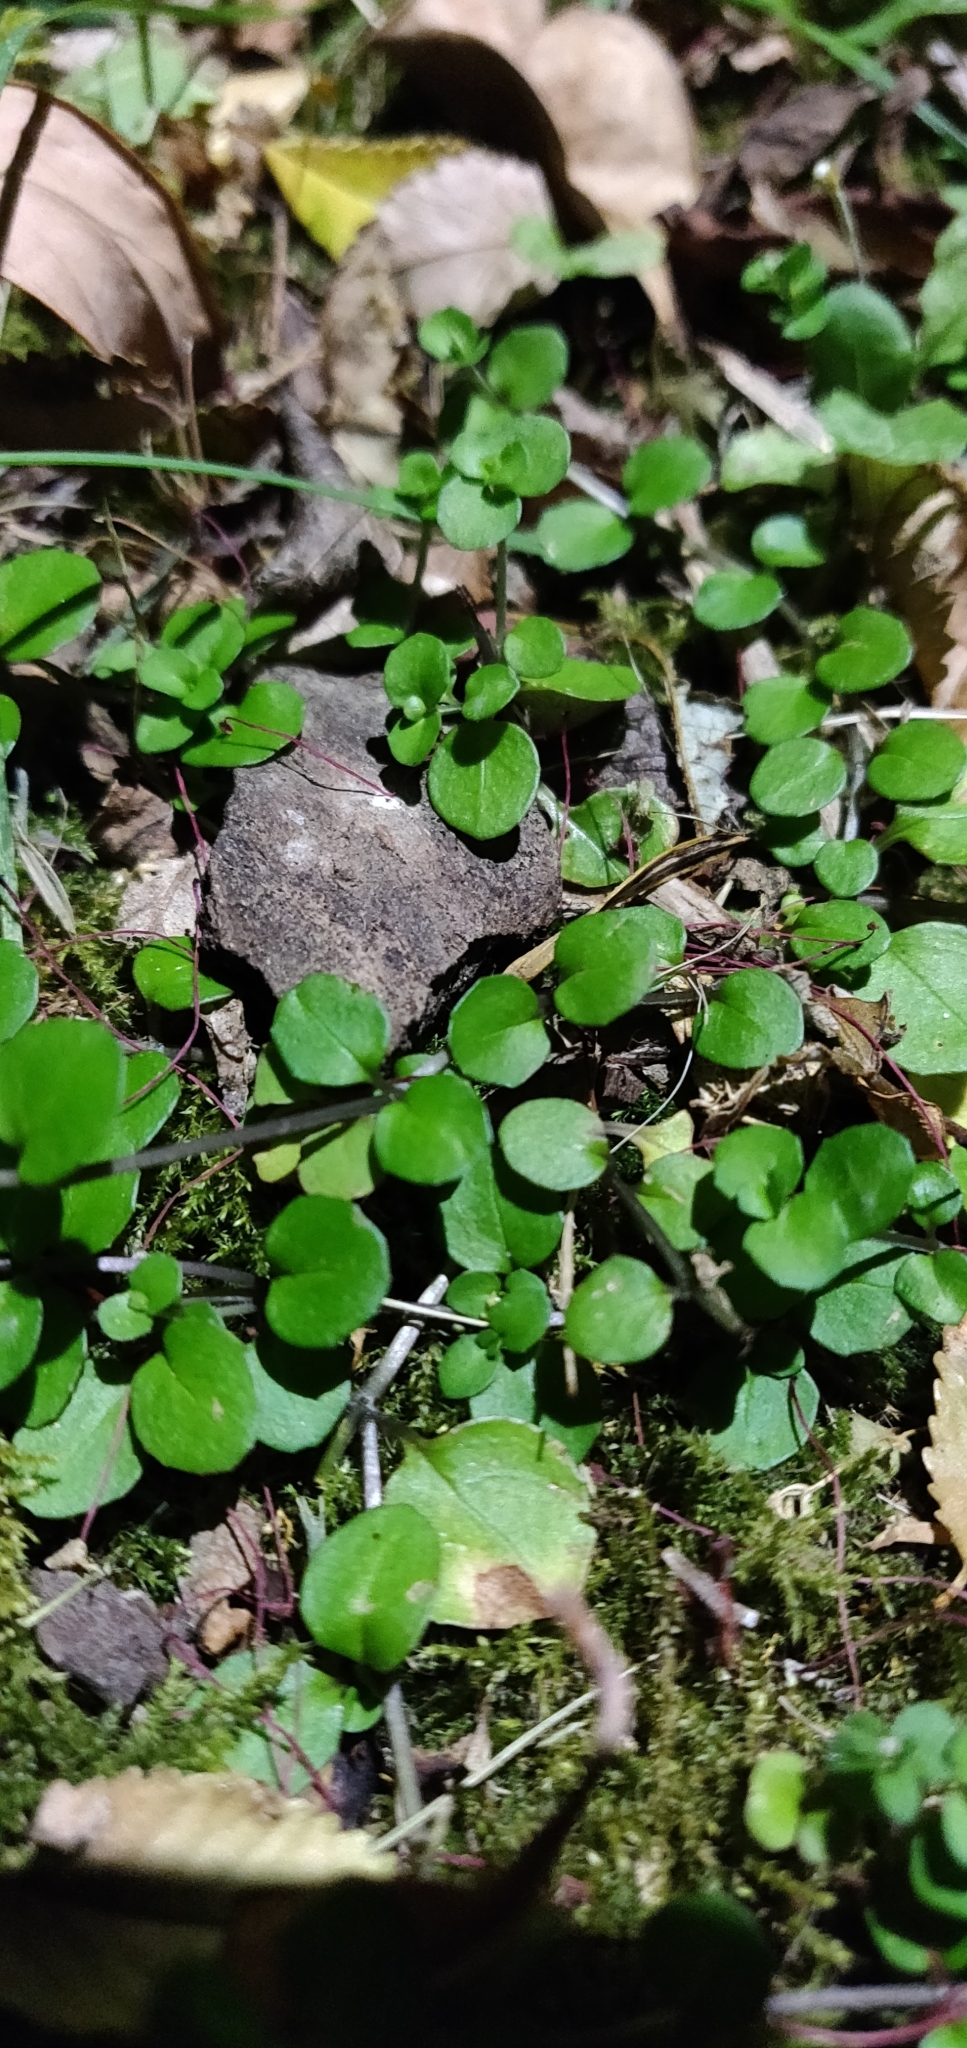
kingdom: Plantae
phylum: Tracheophyta
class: Magnoliopsida
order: Myrtales
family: Onagraceae
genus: Epilobium
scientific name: Epilobium nummularifolium
